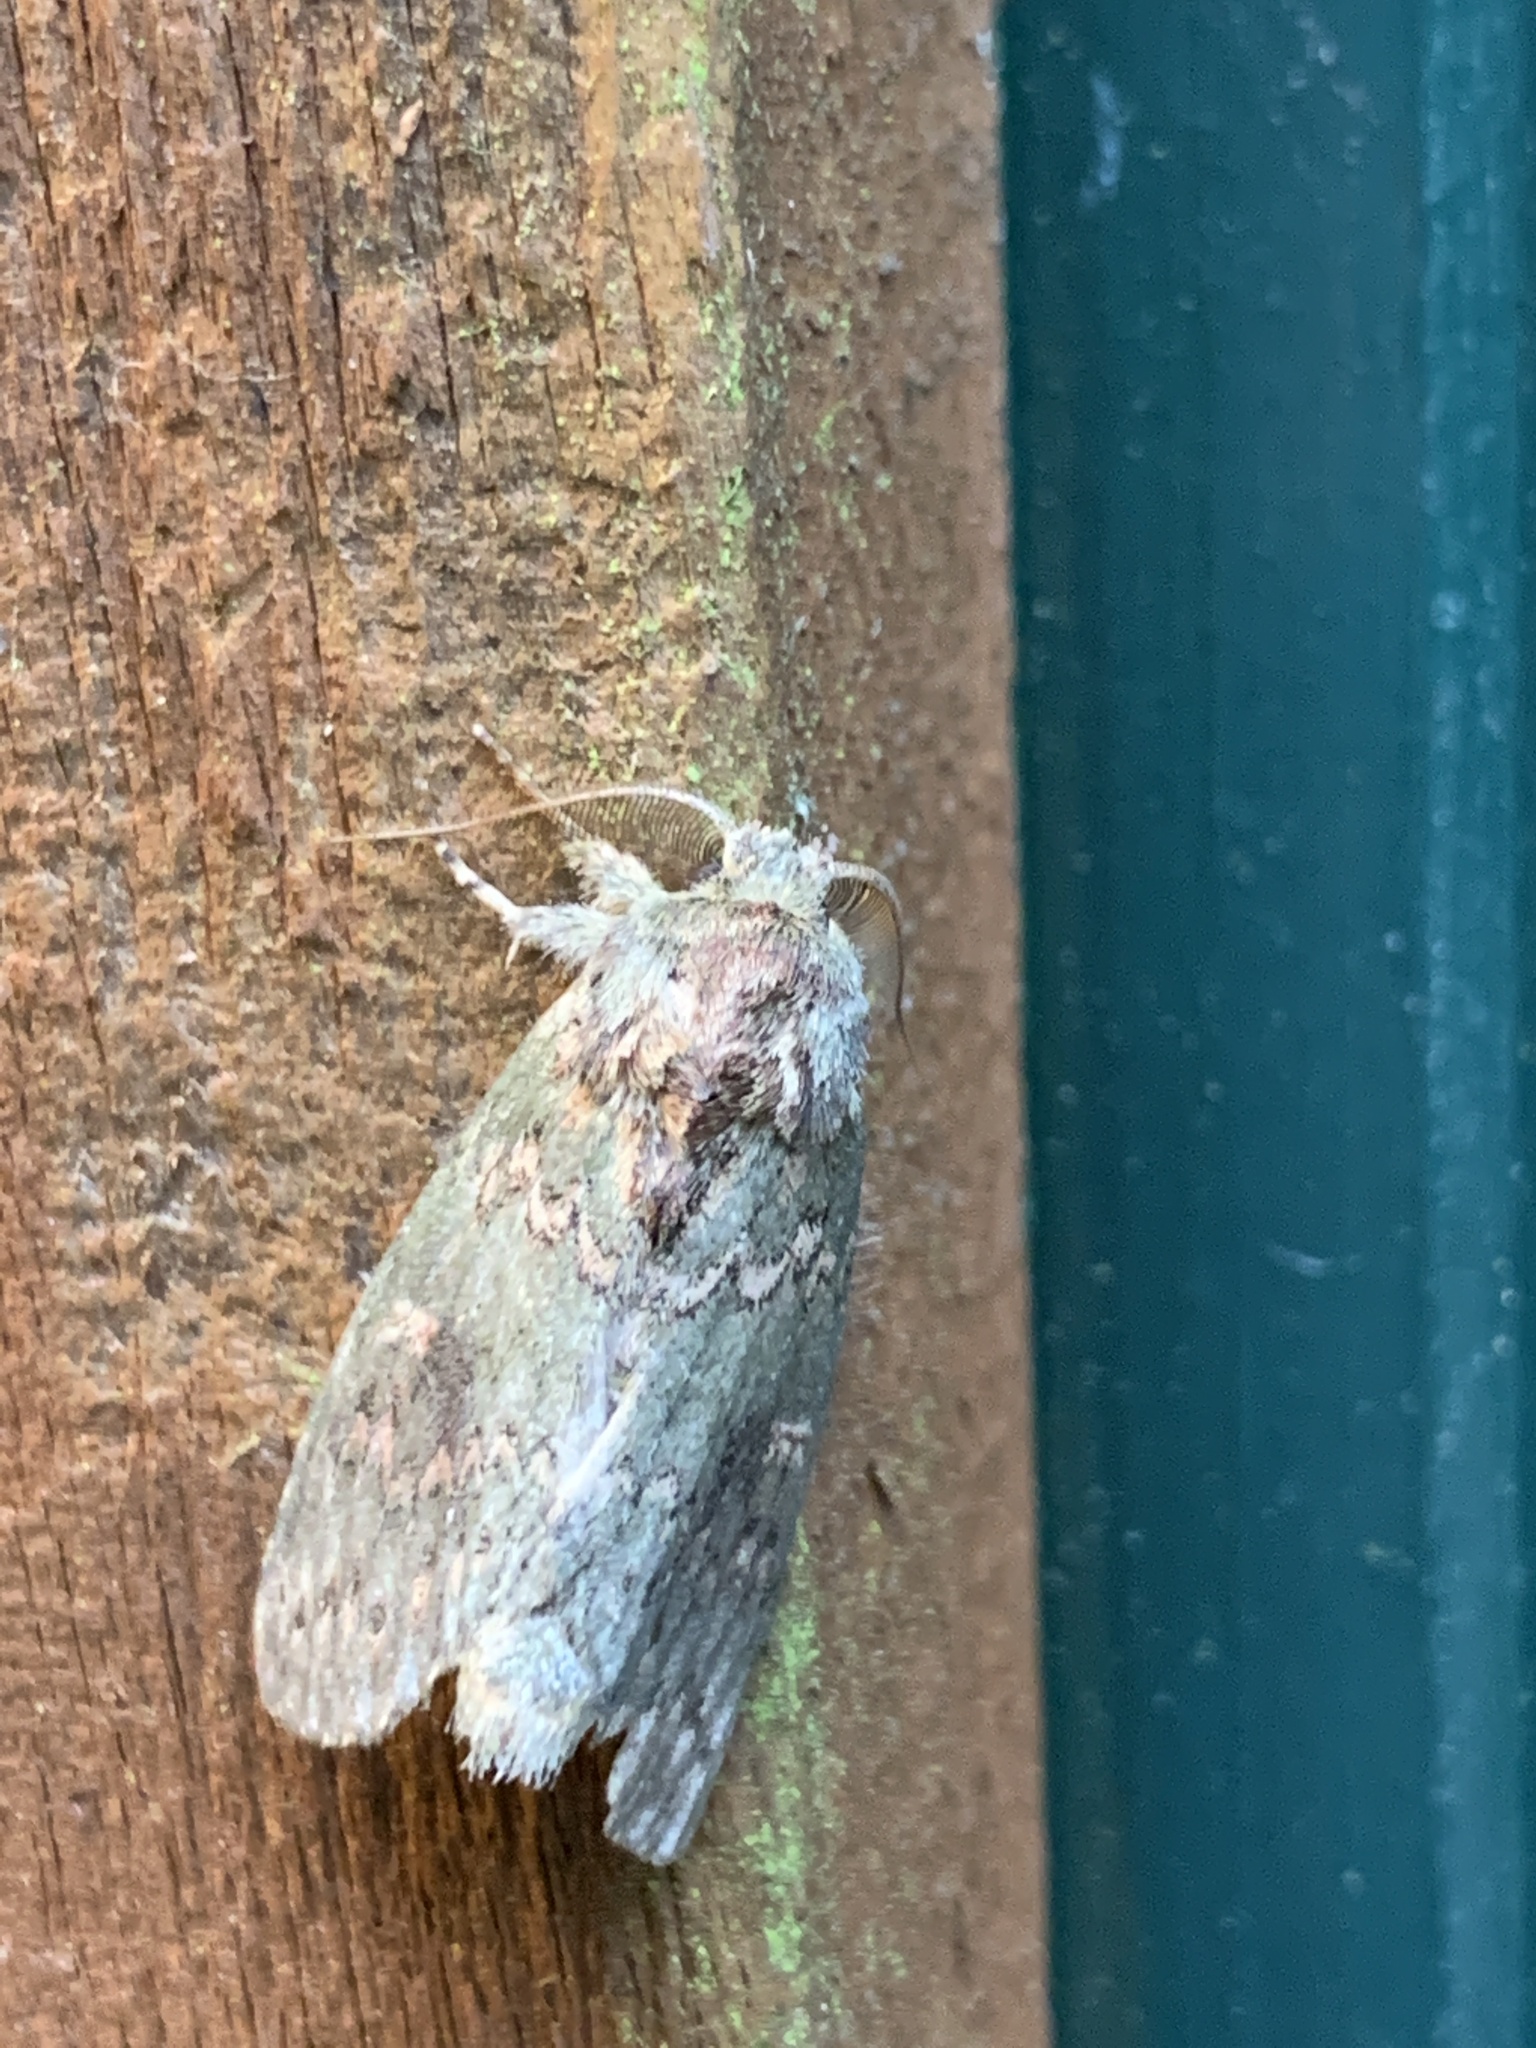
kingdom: Animalia
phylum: Arthropoda
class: Insecta
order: Lepidoptera
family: Notodontidae
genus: Disphragis
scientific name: Disphragis Cecrita biundata
